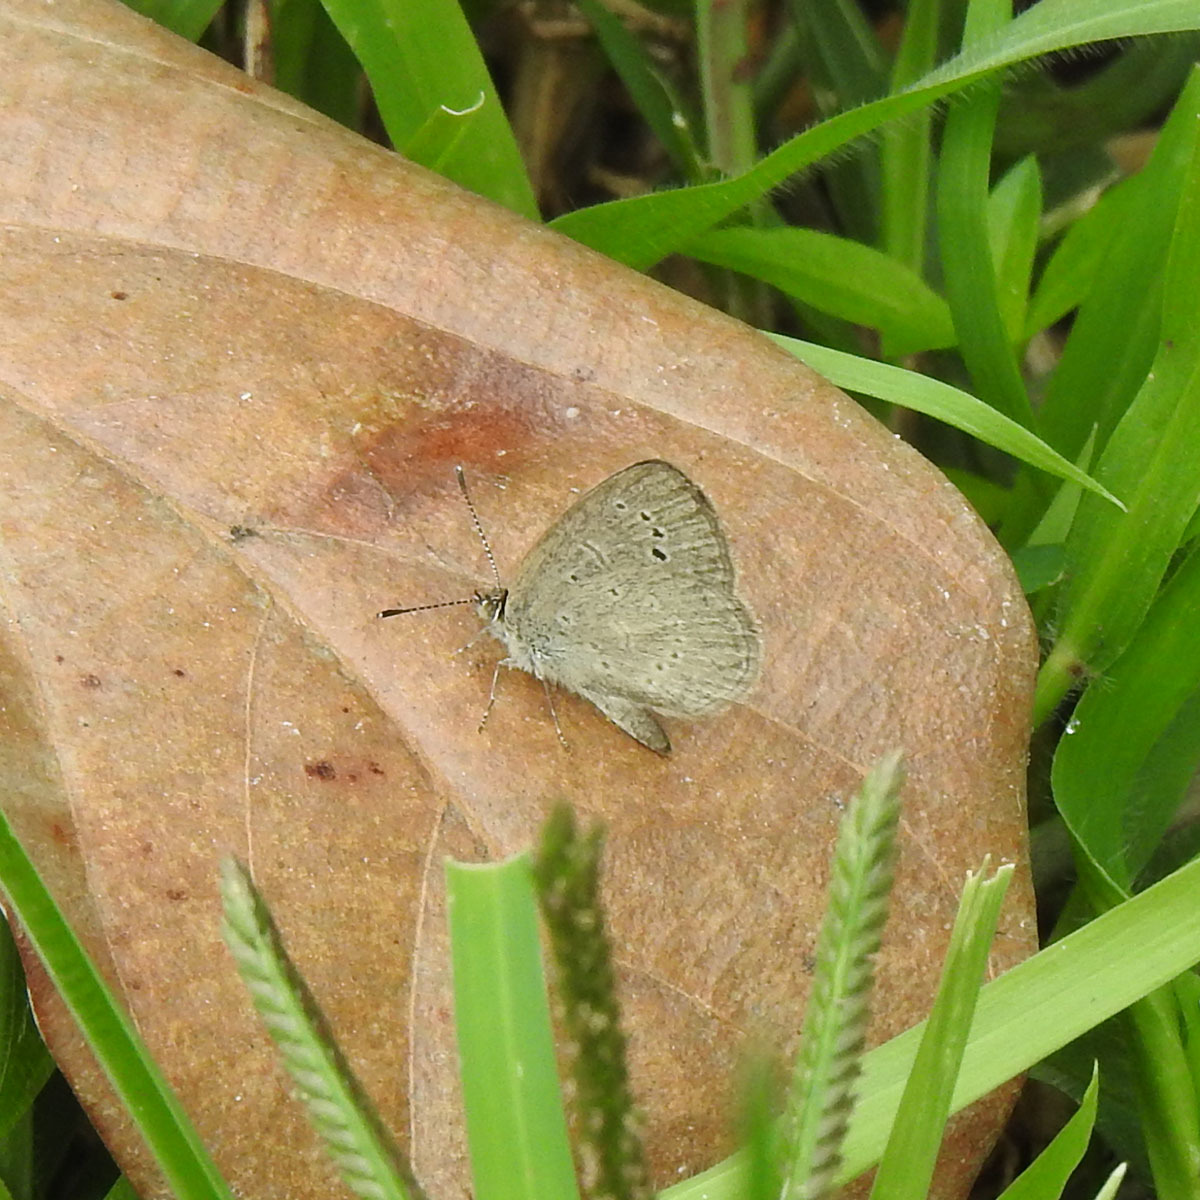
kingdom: Animalia
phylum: Arthropoda
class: Insecta
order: Lepidoptera
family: Lycaenidae
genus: Zizina
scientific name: Zizina otis
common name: Lesser grass blue
